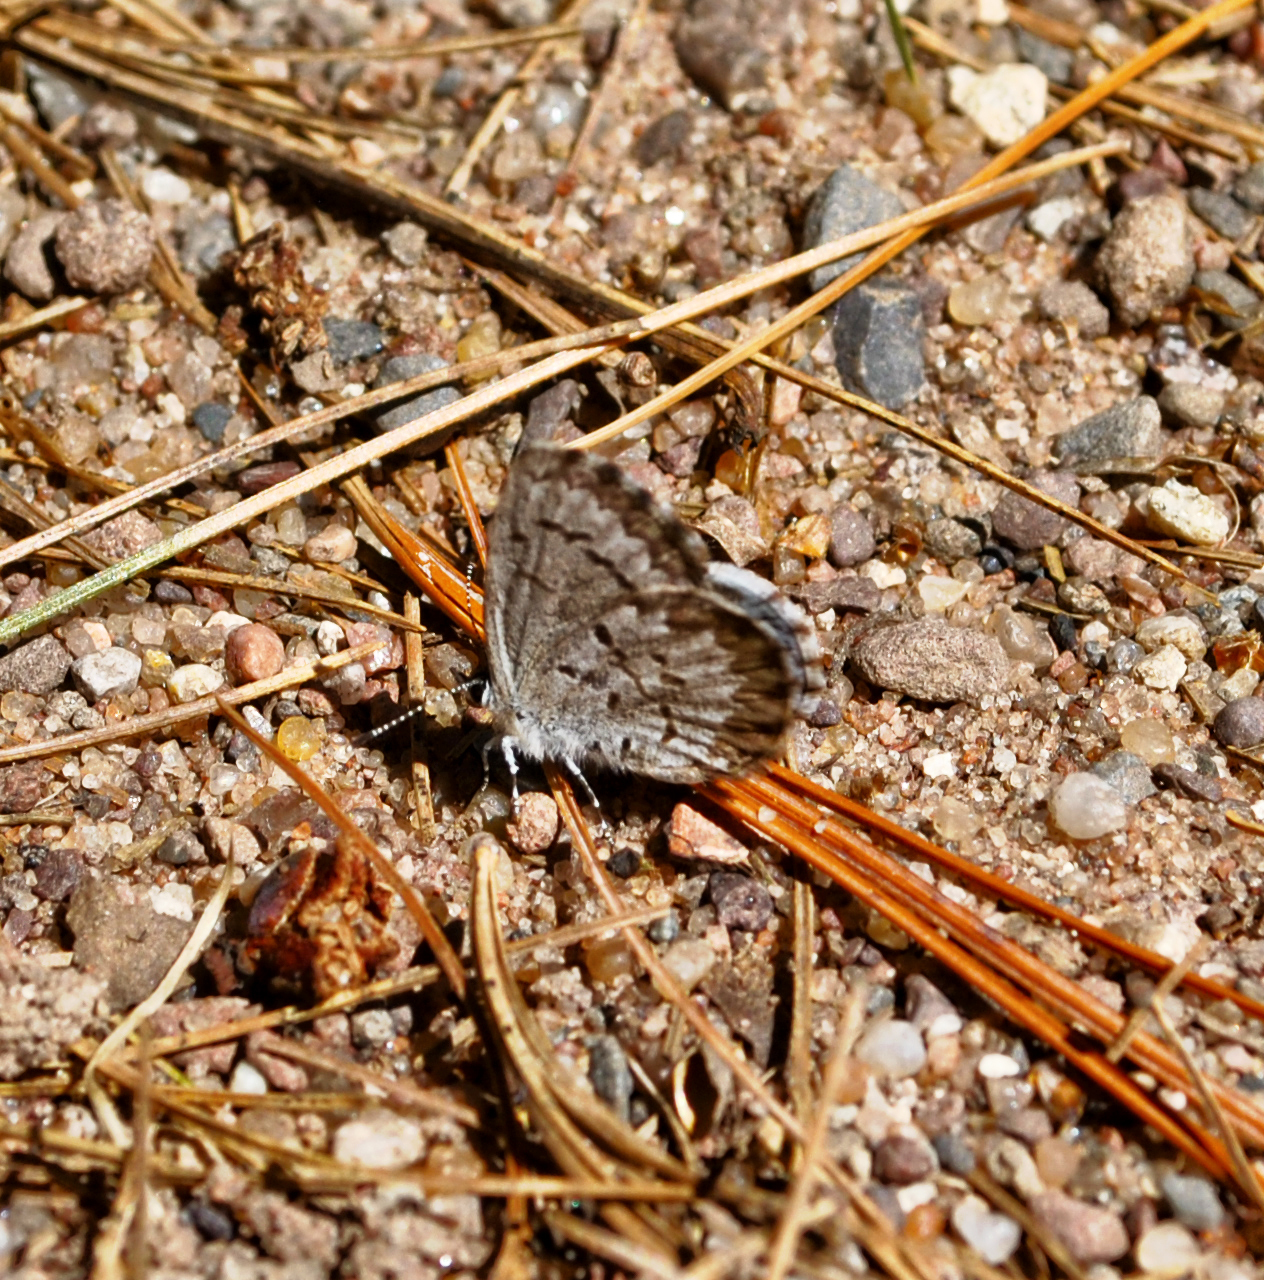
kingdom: Animalia
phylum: Arthropoda
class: Insecta
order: Lepidoptera
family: Lycaenidae
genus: Celastrina
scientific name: Celastrina lucia
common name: Lucia azure
